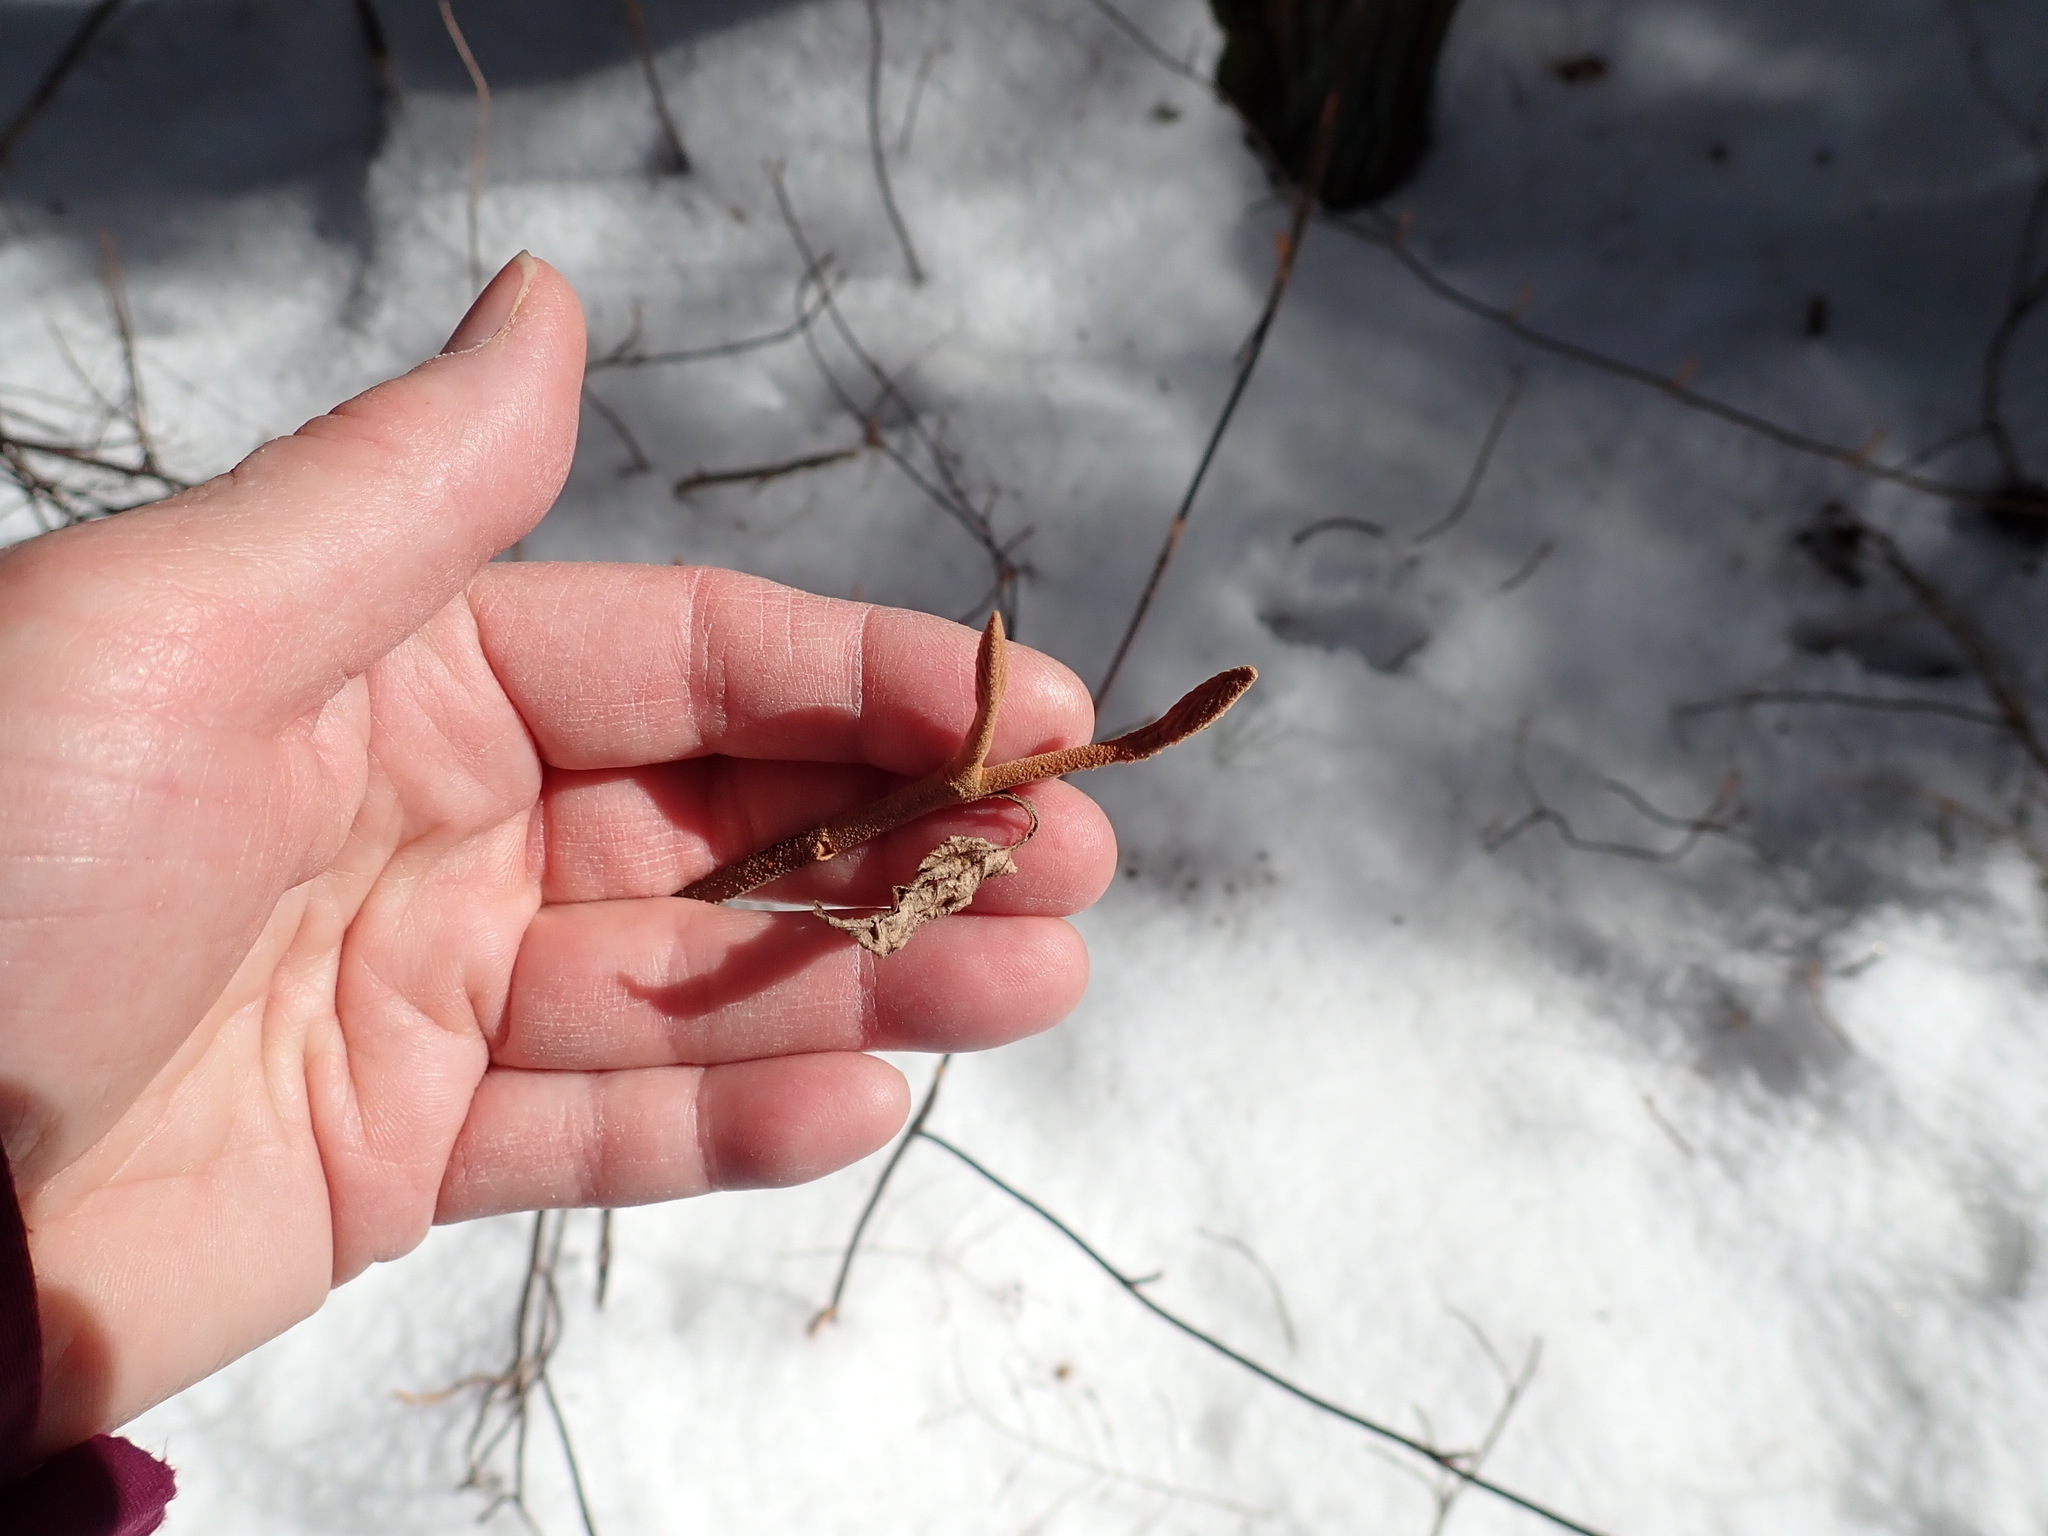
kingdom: Plantae
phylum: Tracheophyta
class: Magnoliopsida
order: Dipsacales
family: Viburnaceae
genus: Viburnum
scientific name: Viburnum lantanoides
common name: Hobblebush
